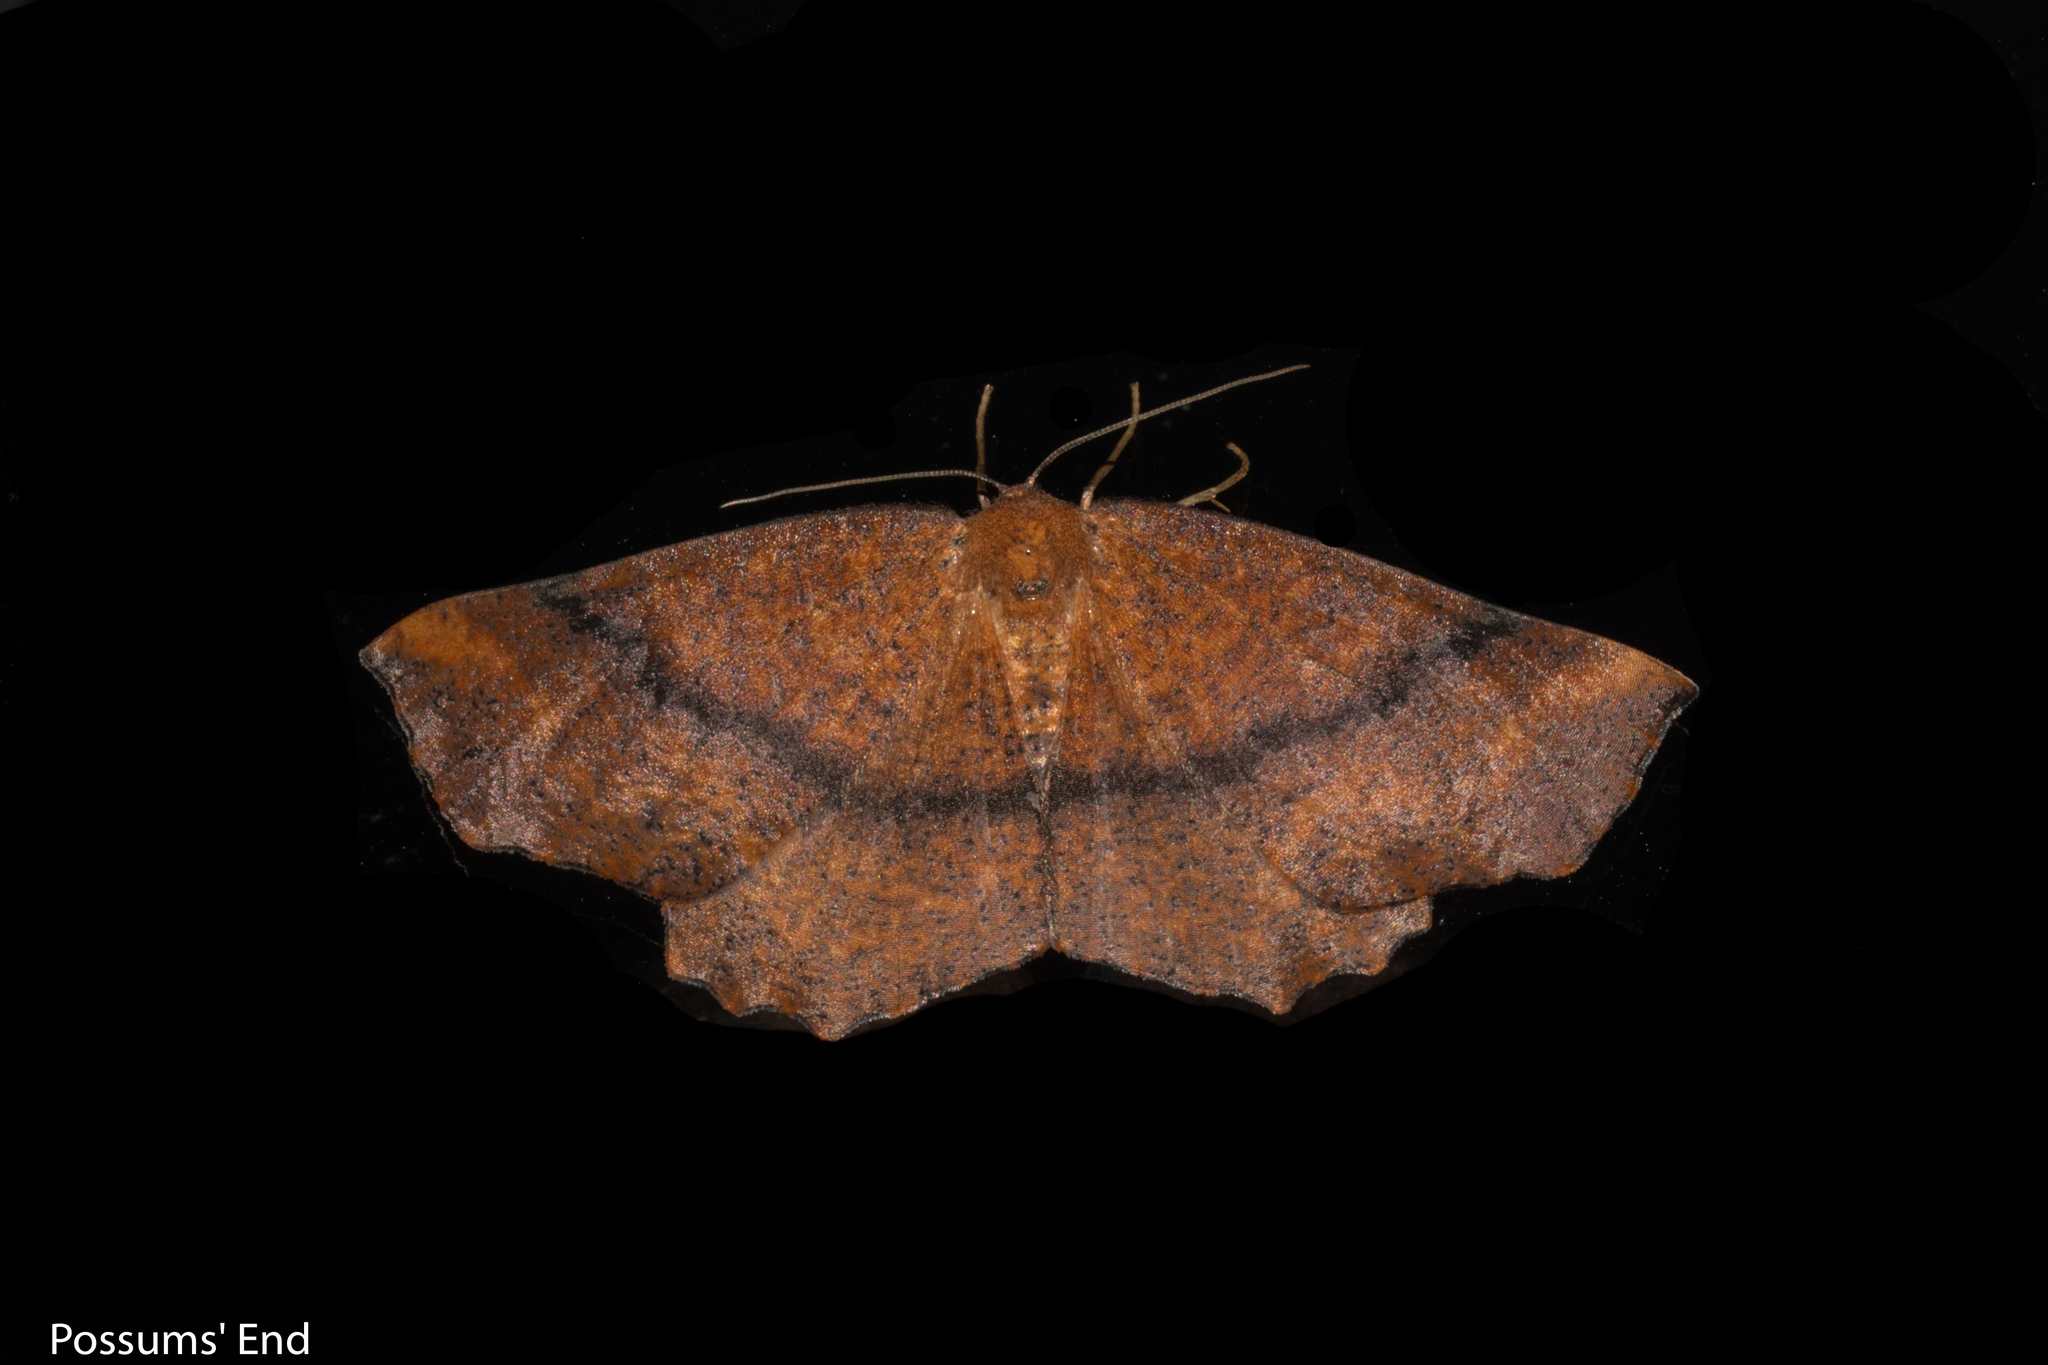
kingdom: Animalia
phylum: Arthropoda
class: Insecta
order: Lepidoptera
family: Geometridae
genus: Xyridacma
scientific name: Xyridacma ustaria
